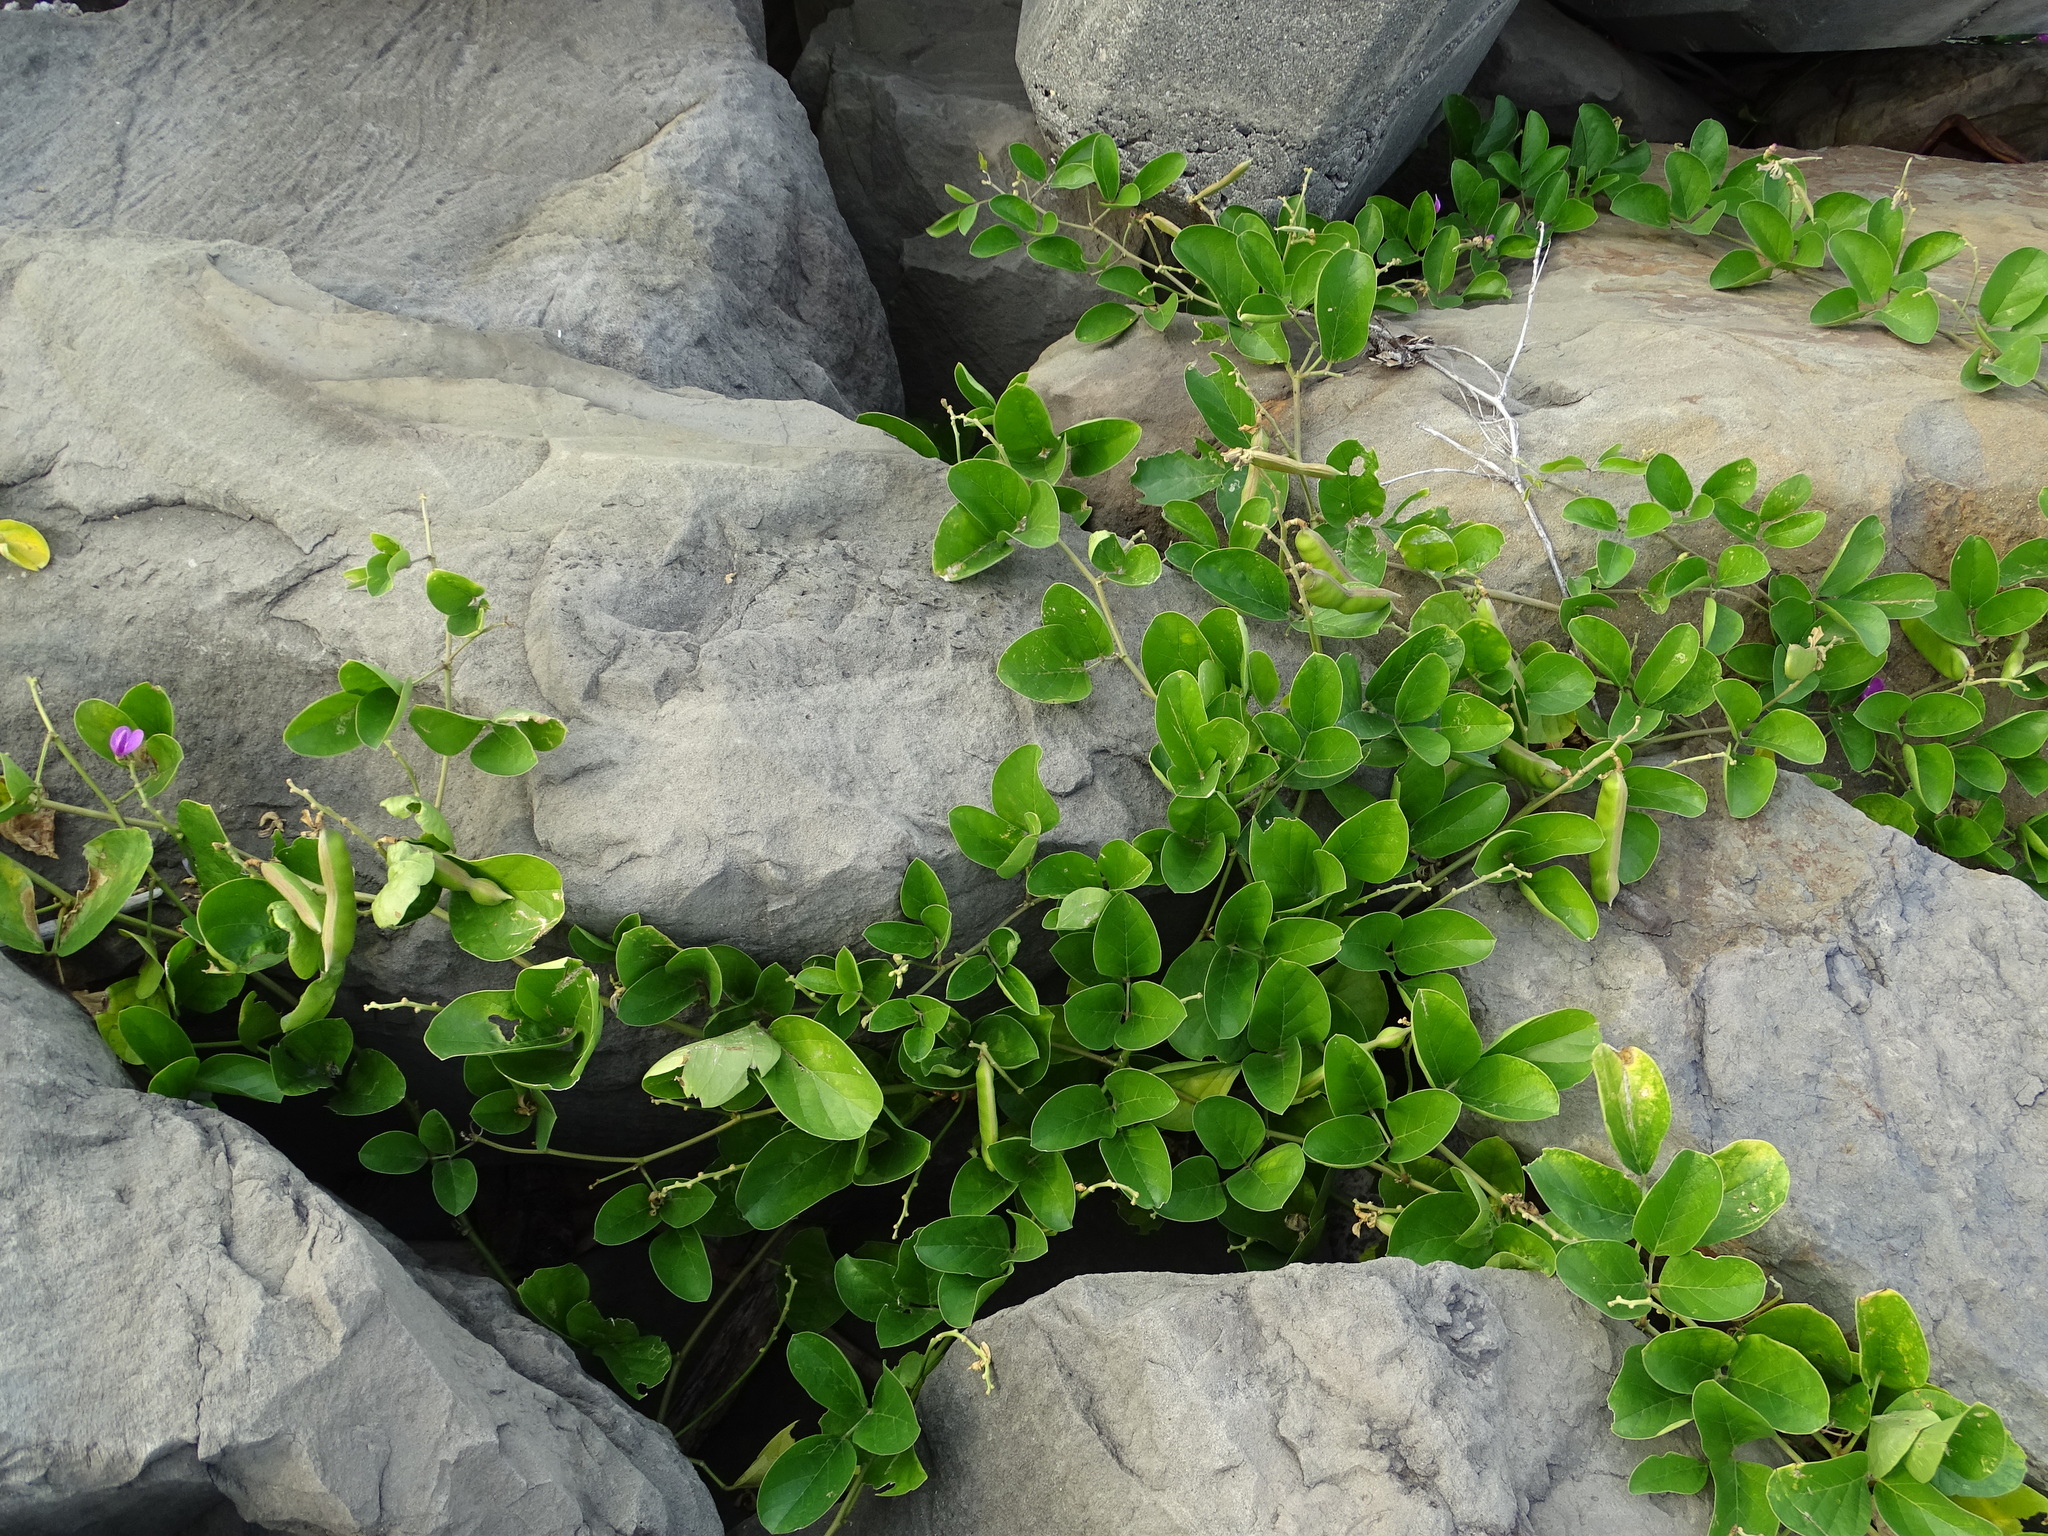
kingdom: Plantae
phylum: Tracheophyta
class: Magnoliopsida
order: Fabales
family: Fabaceae
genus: Canavalia
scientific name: Canavalia rosea
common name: Beach-bean
